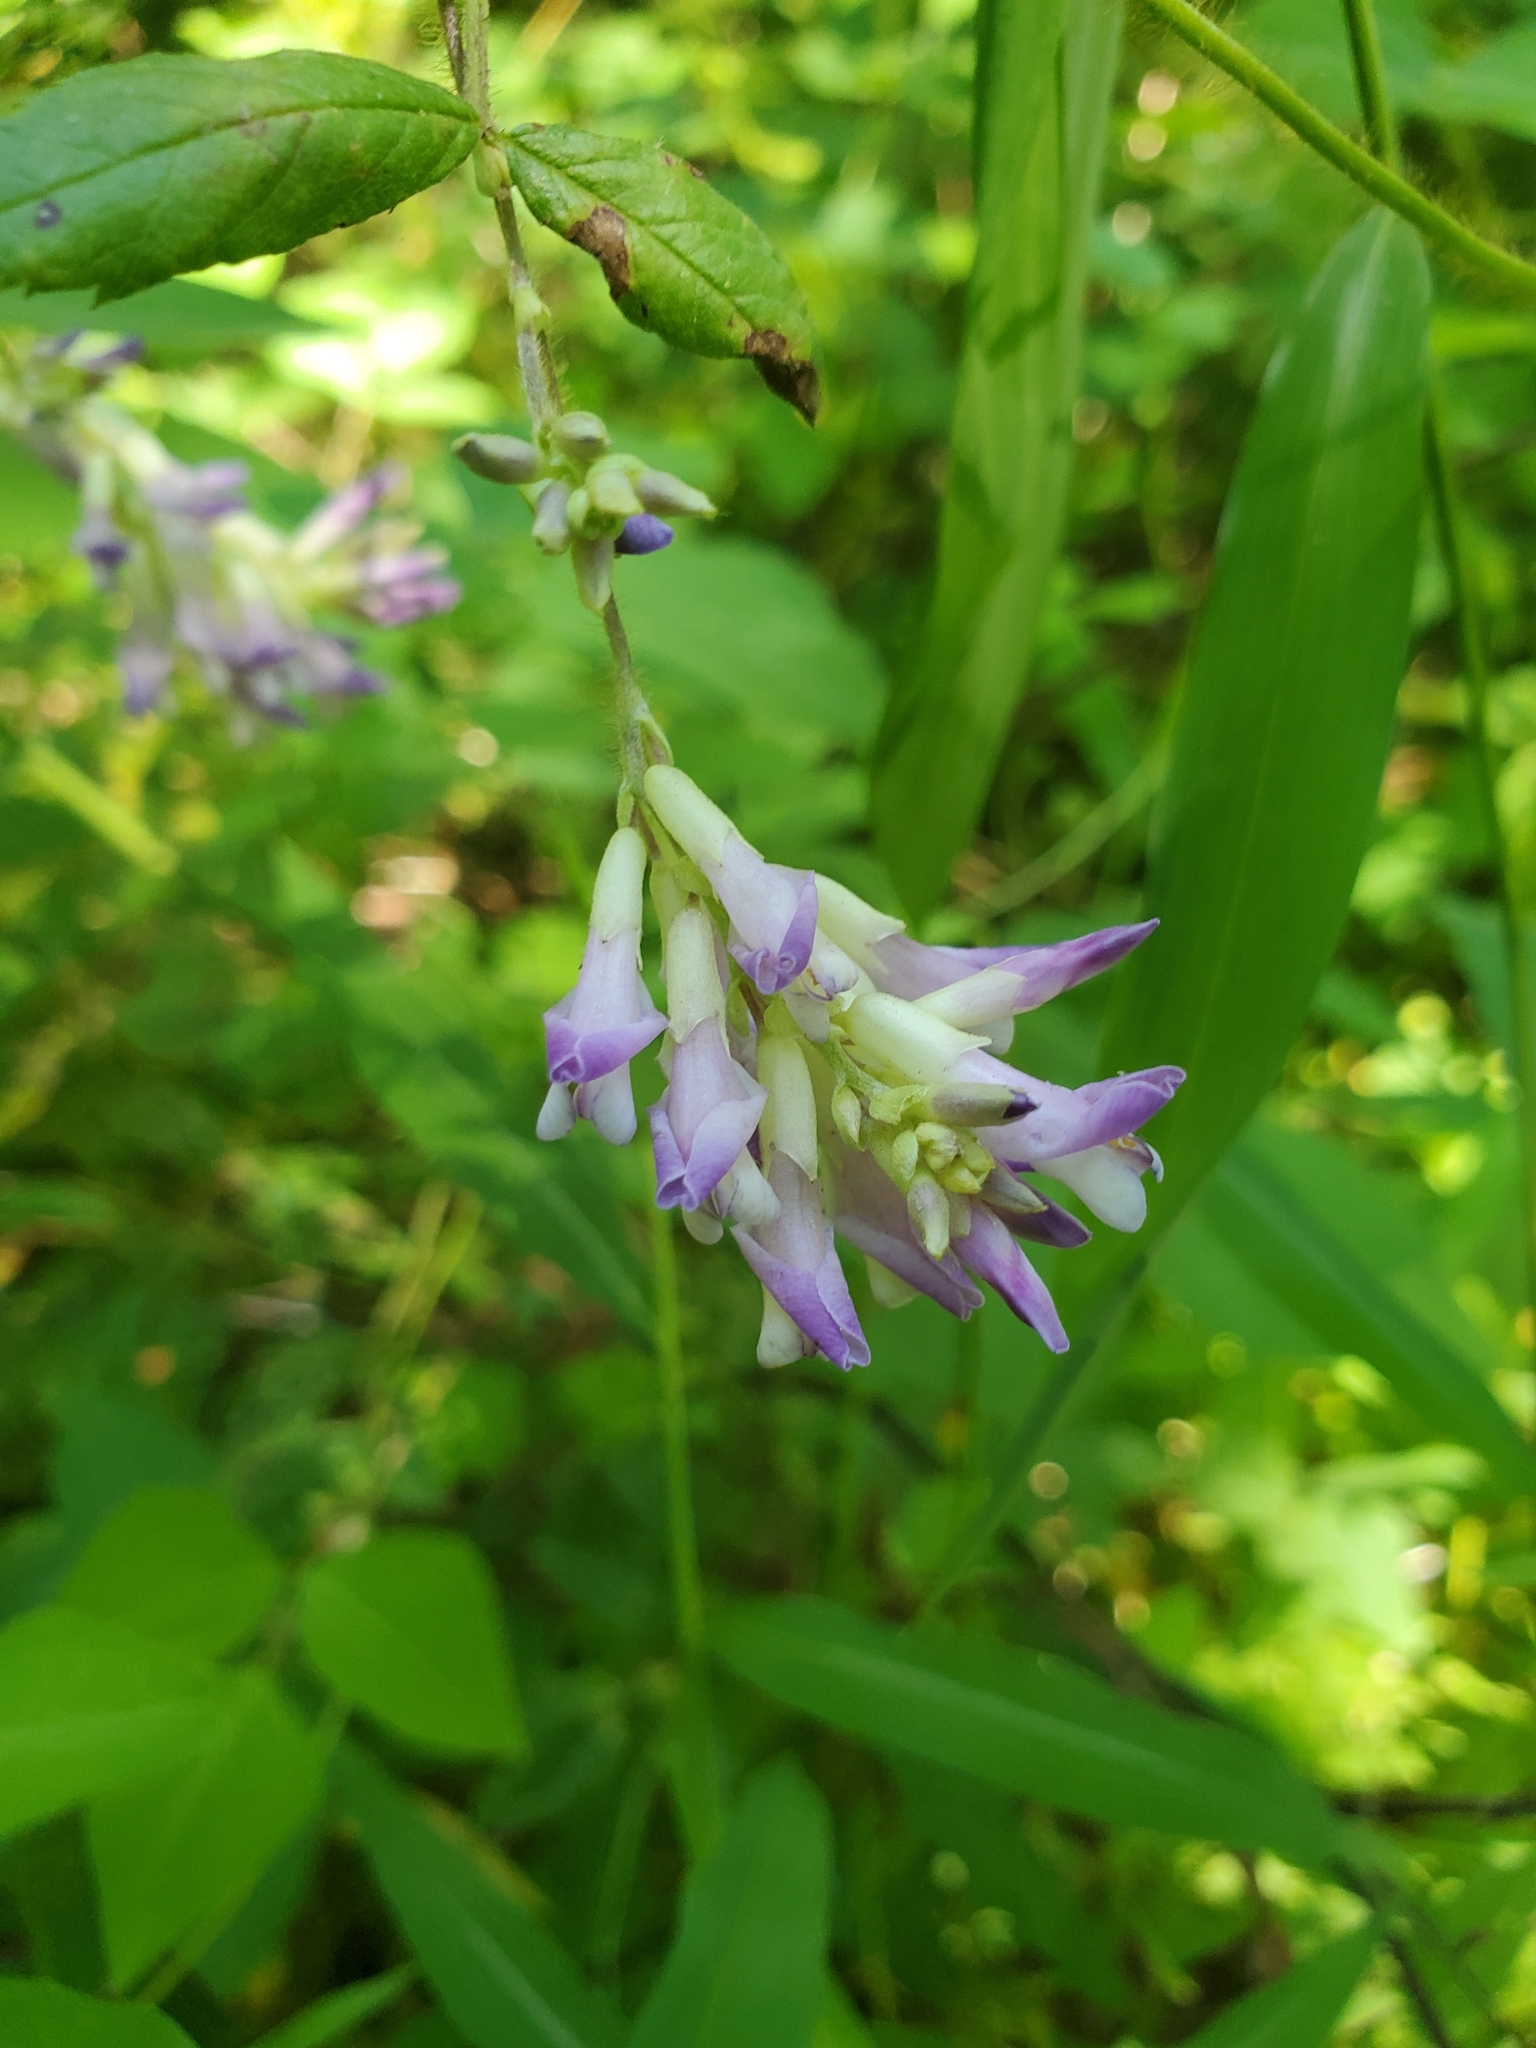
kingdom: Plantae
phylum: Tracheophyta
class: Magnoliopsida
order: Fabales
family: Fabaceae
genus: Amphicarpaea
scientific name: Amphicarpaea bracteata
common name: American hog peanut
